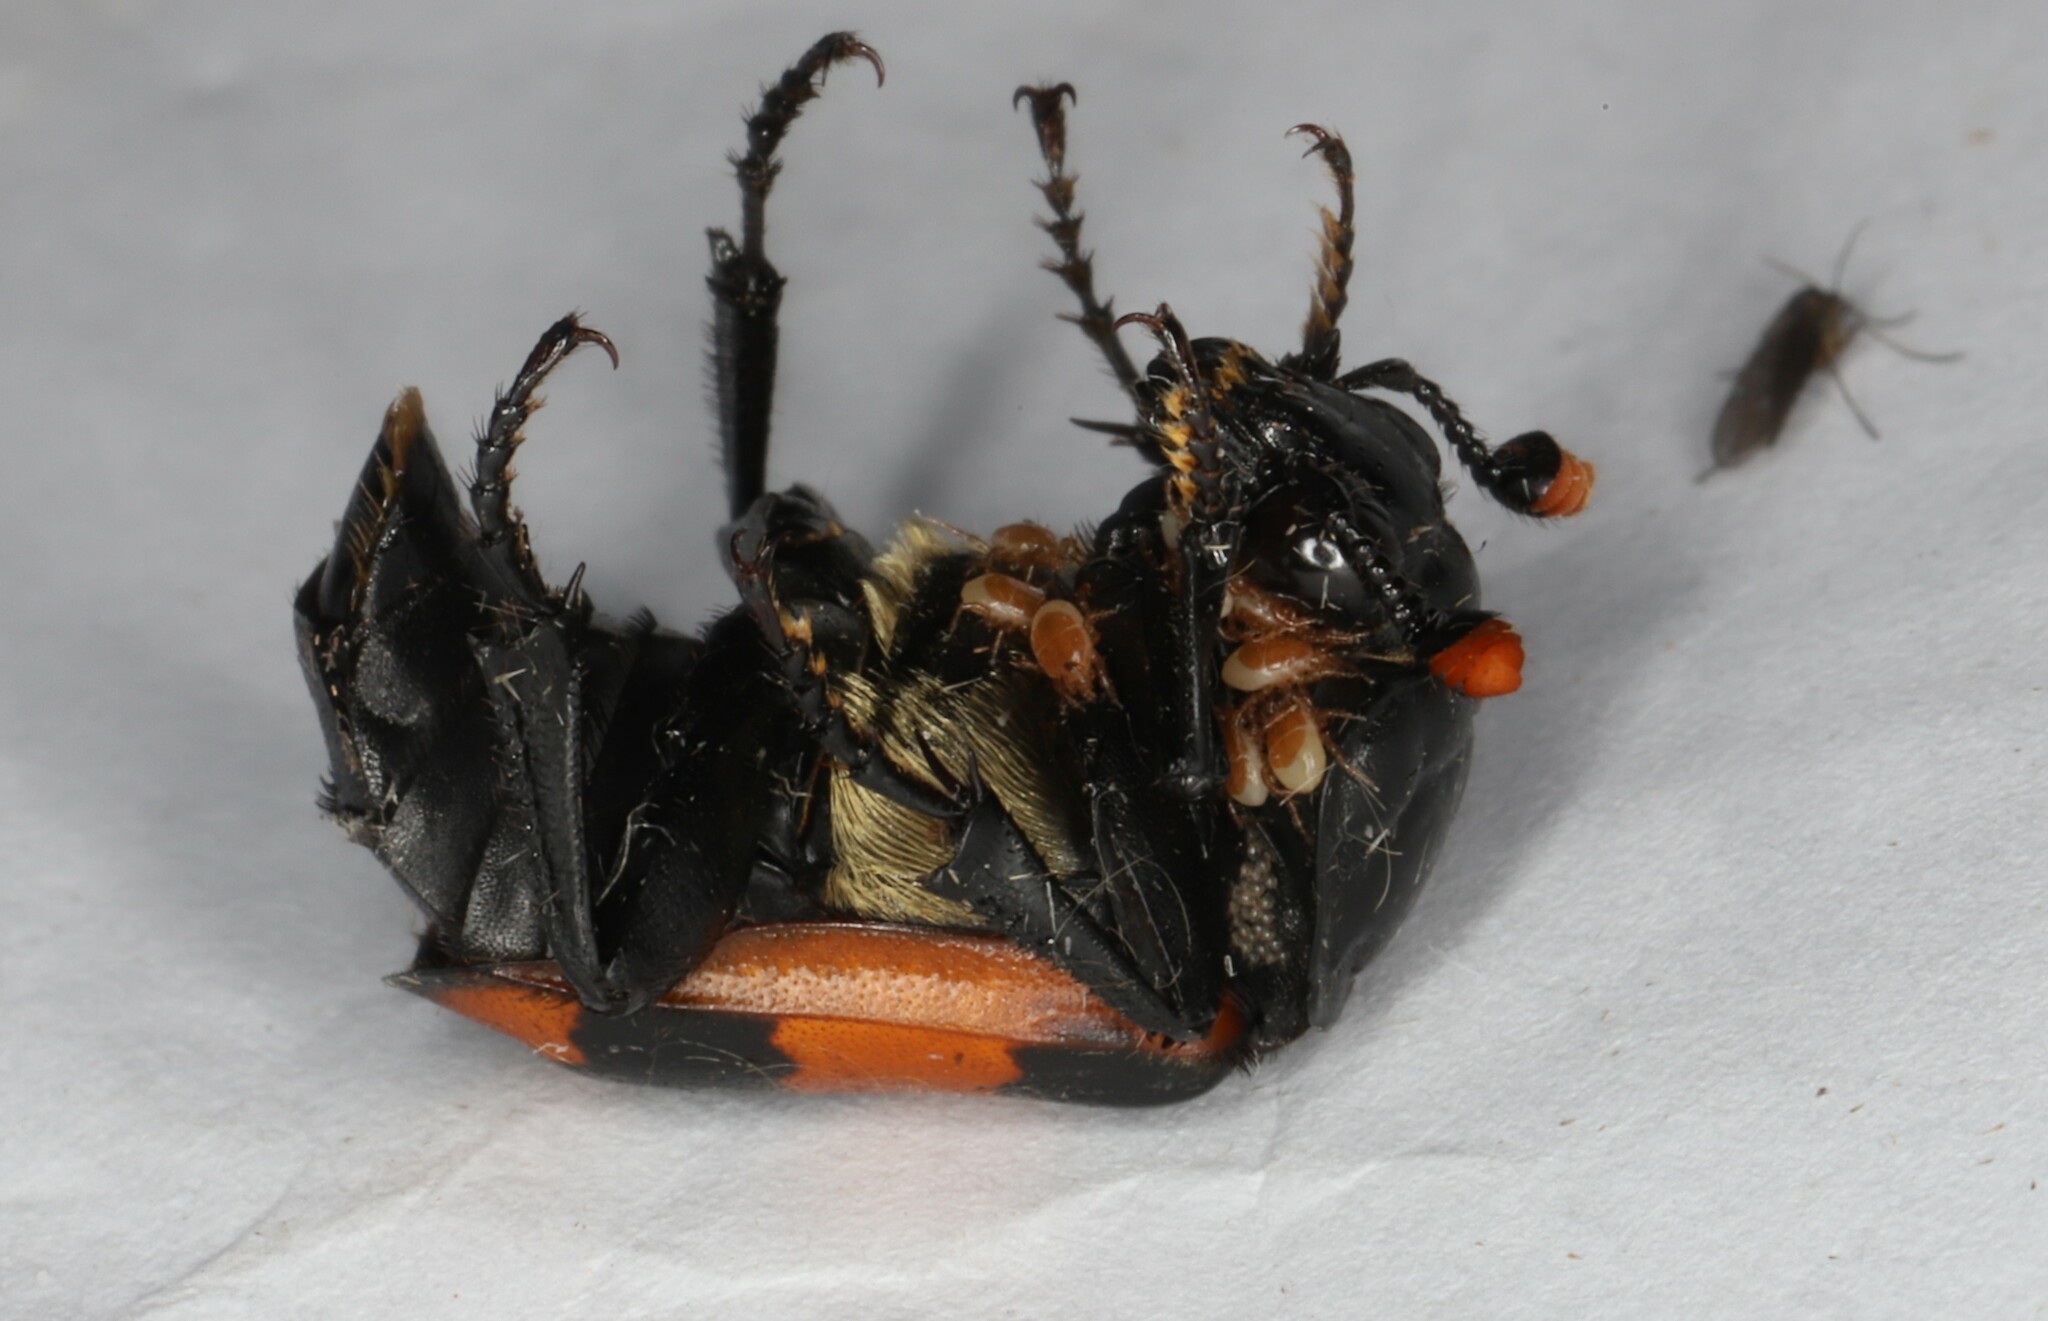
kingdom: Animalia
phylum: Arthropoda
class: Insecta
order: Coleoptera
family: Staphylinidae
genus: Nicrophorus
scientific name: Nicrophorus investigator
